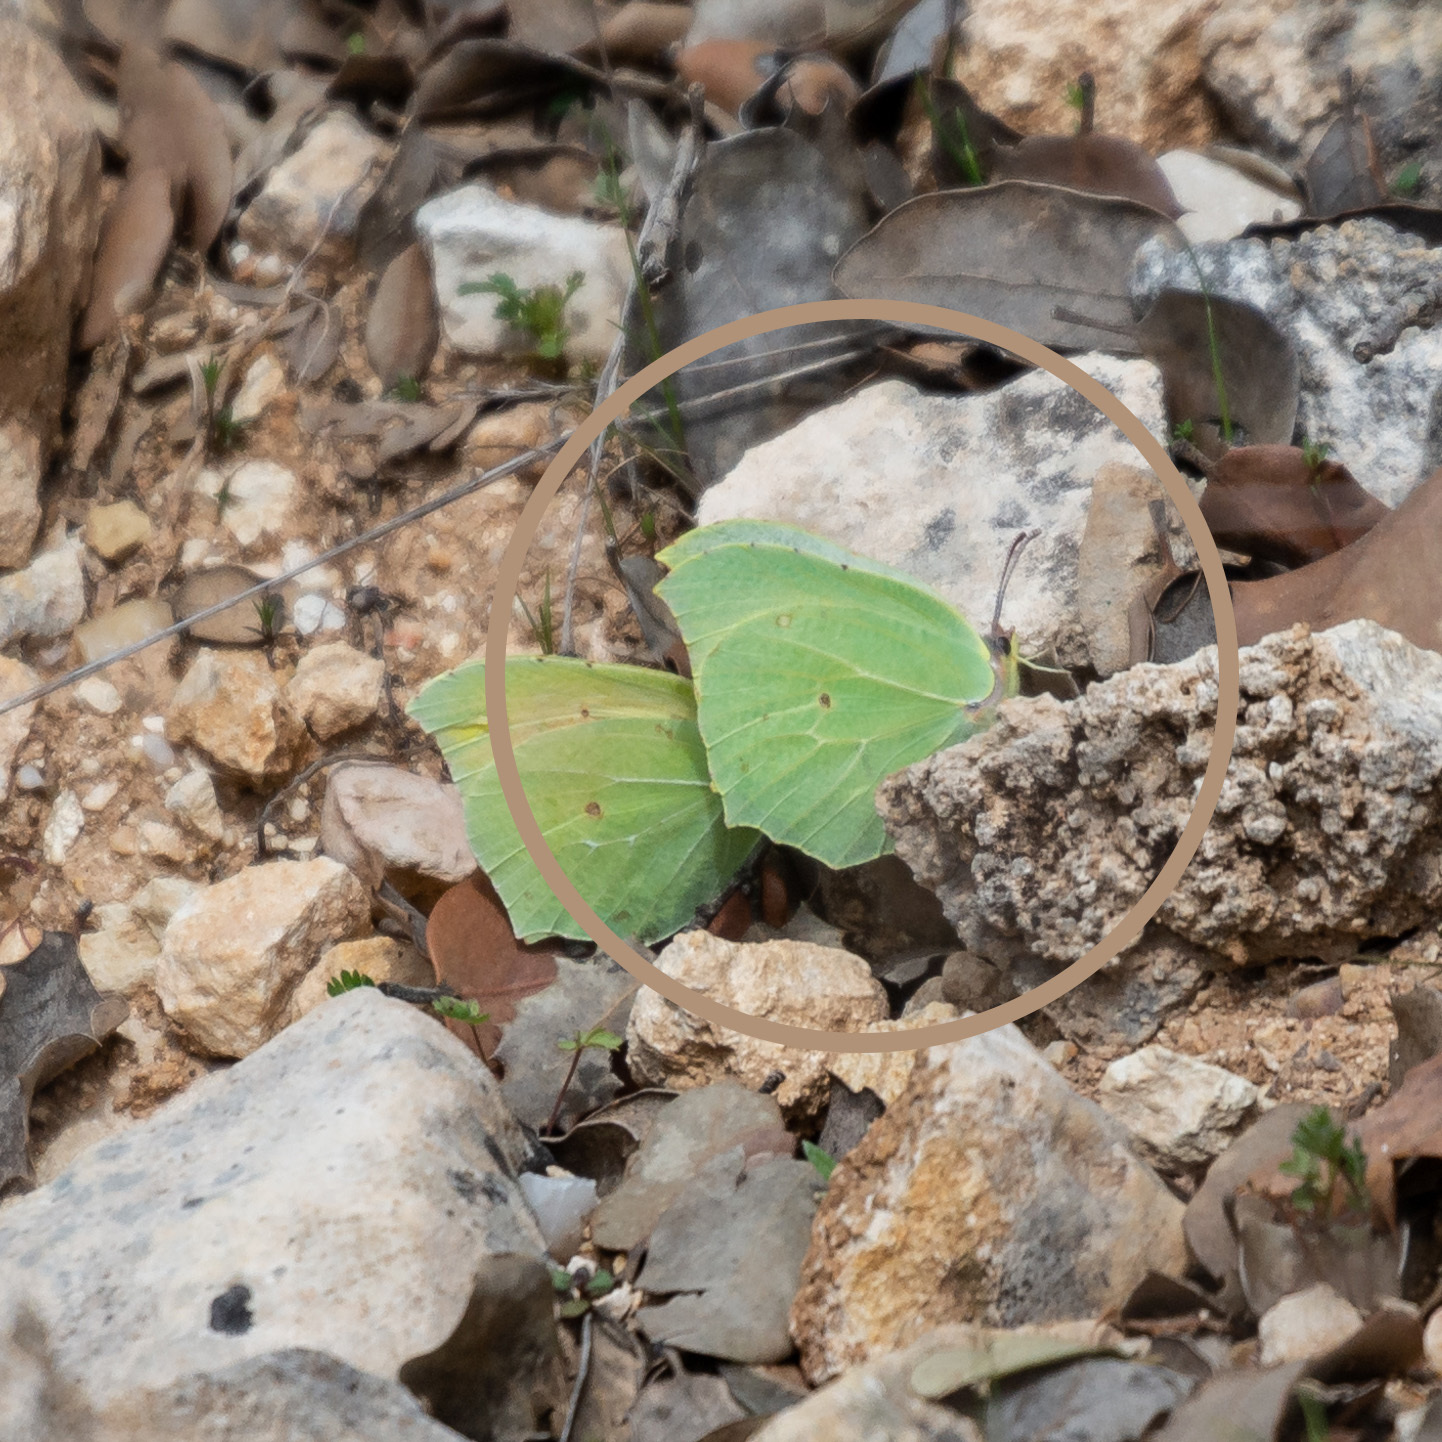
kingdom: Animalia
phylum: Arthropoda
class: Insecta
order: Lepidoptera
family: Pieridae
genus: Gonepteryx
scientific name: Gonepteryx cleopatra
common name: Cleopatra
